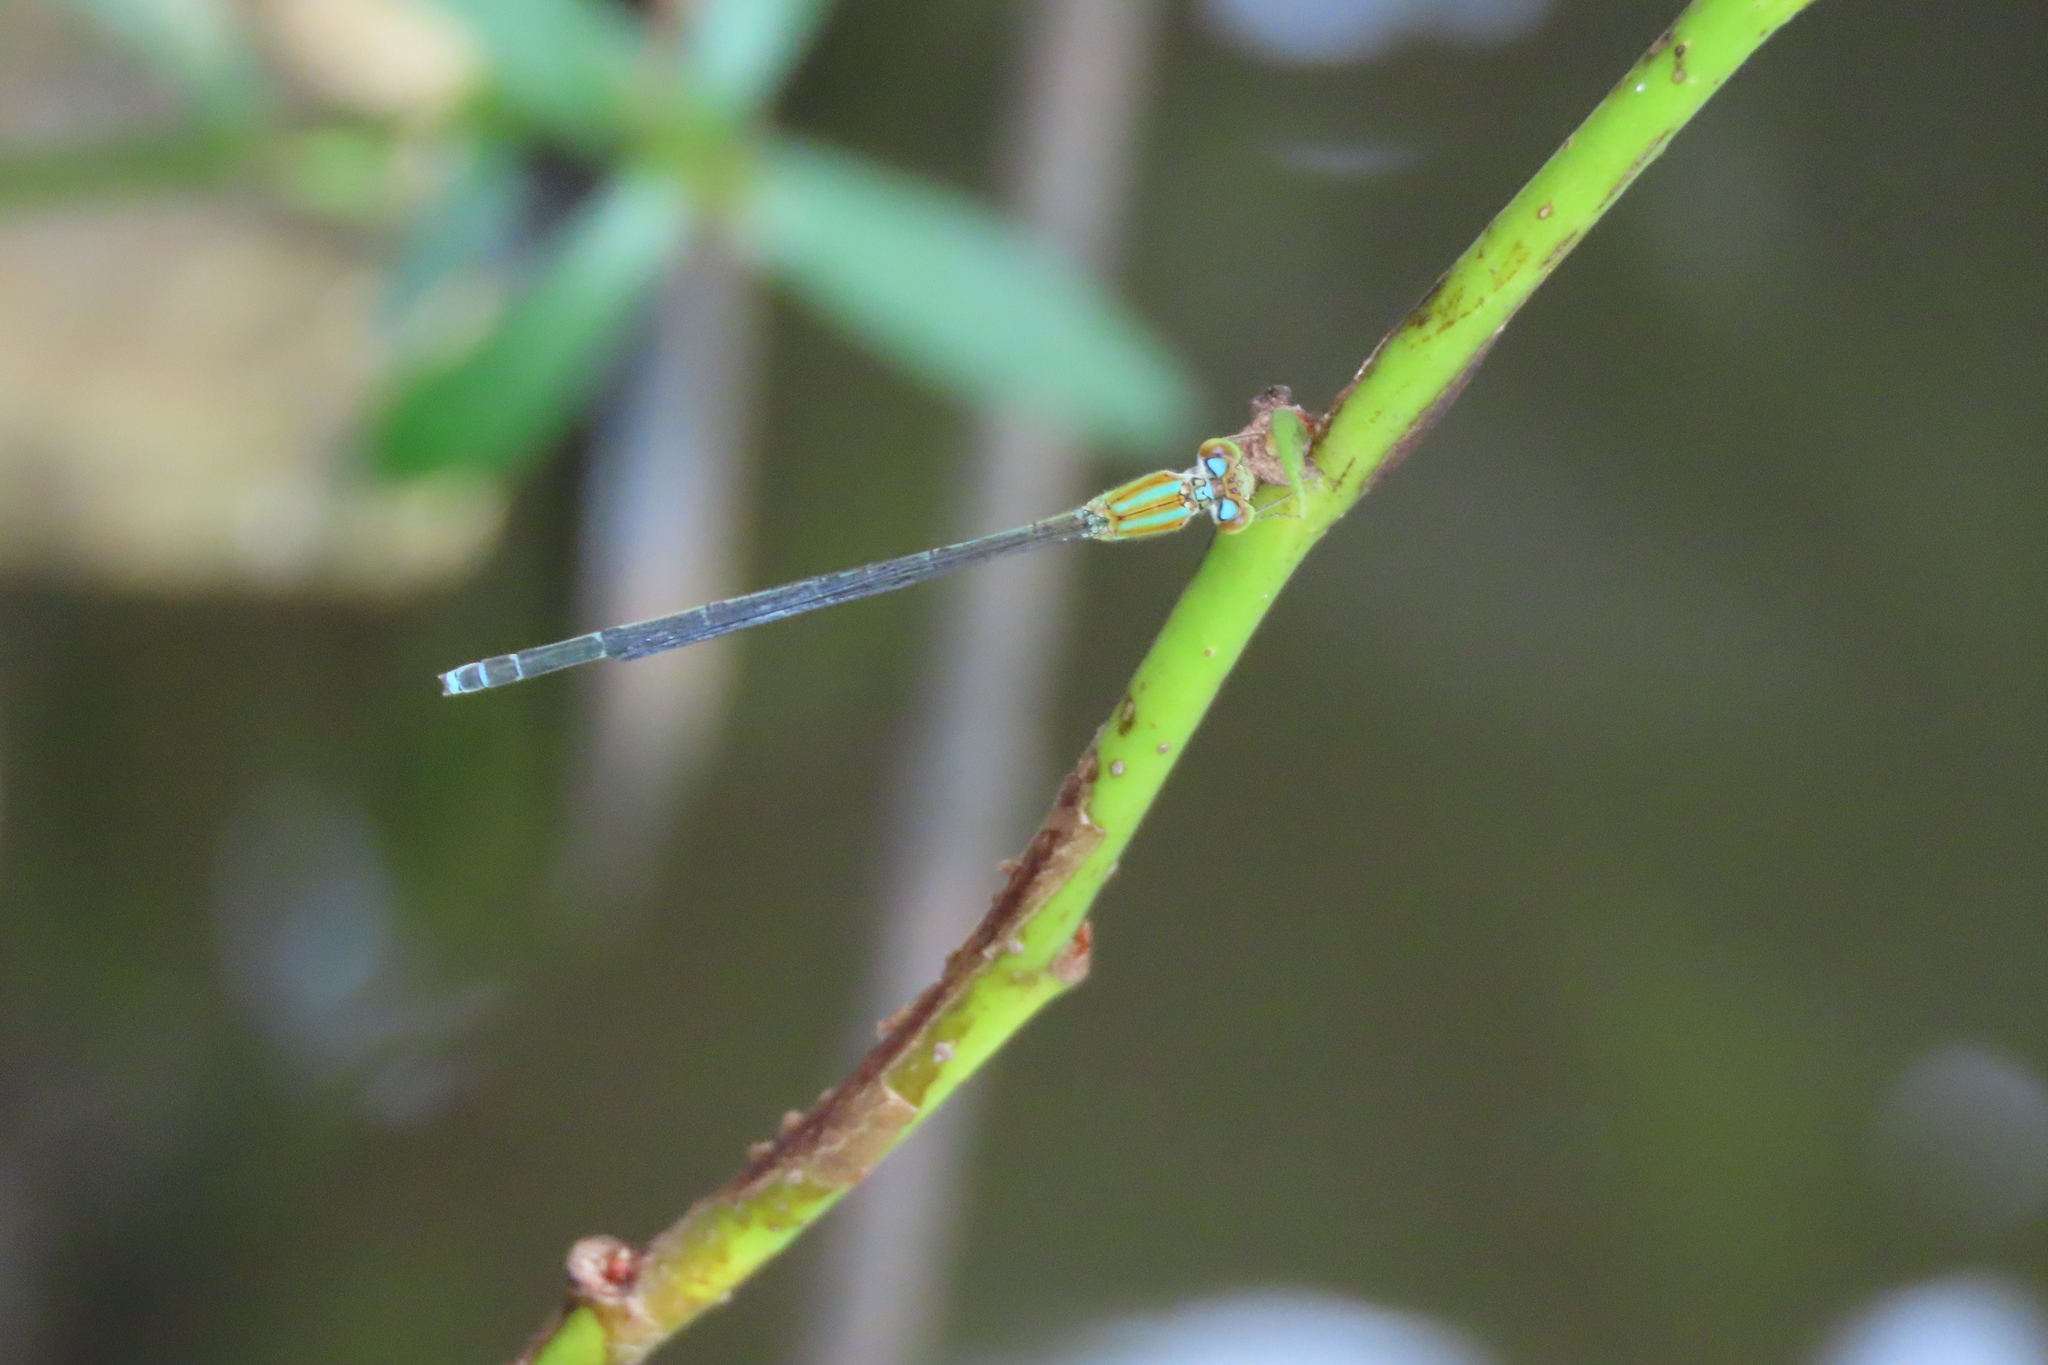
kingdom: Animalia
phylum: Arthropoda
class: Insecta
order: Odonata
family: Coenagrionidae
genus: Pseudagrion
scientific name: Pseudagrion microcephalum
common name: Blue riverdamsel
